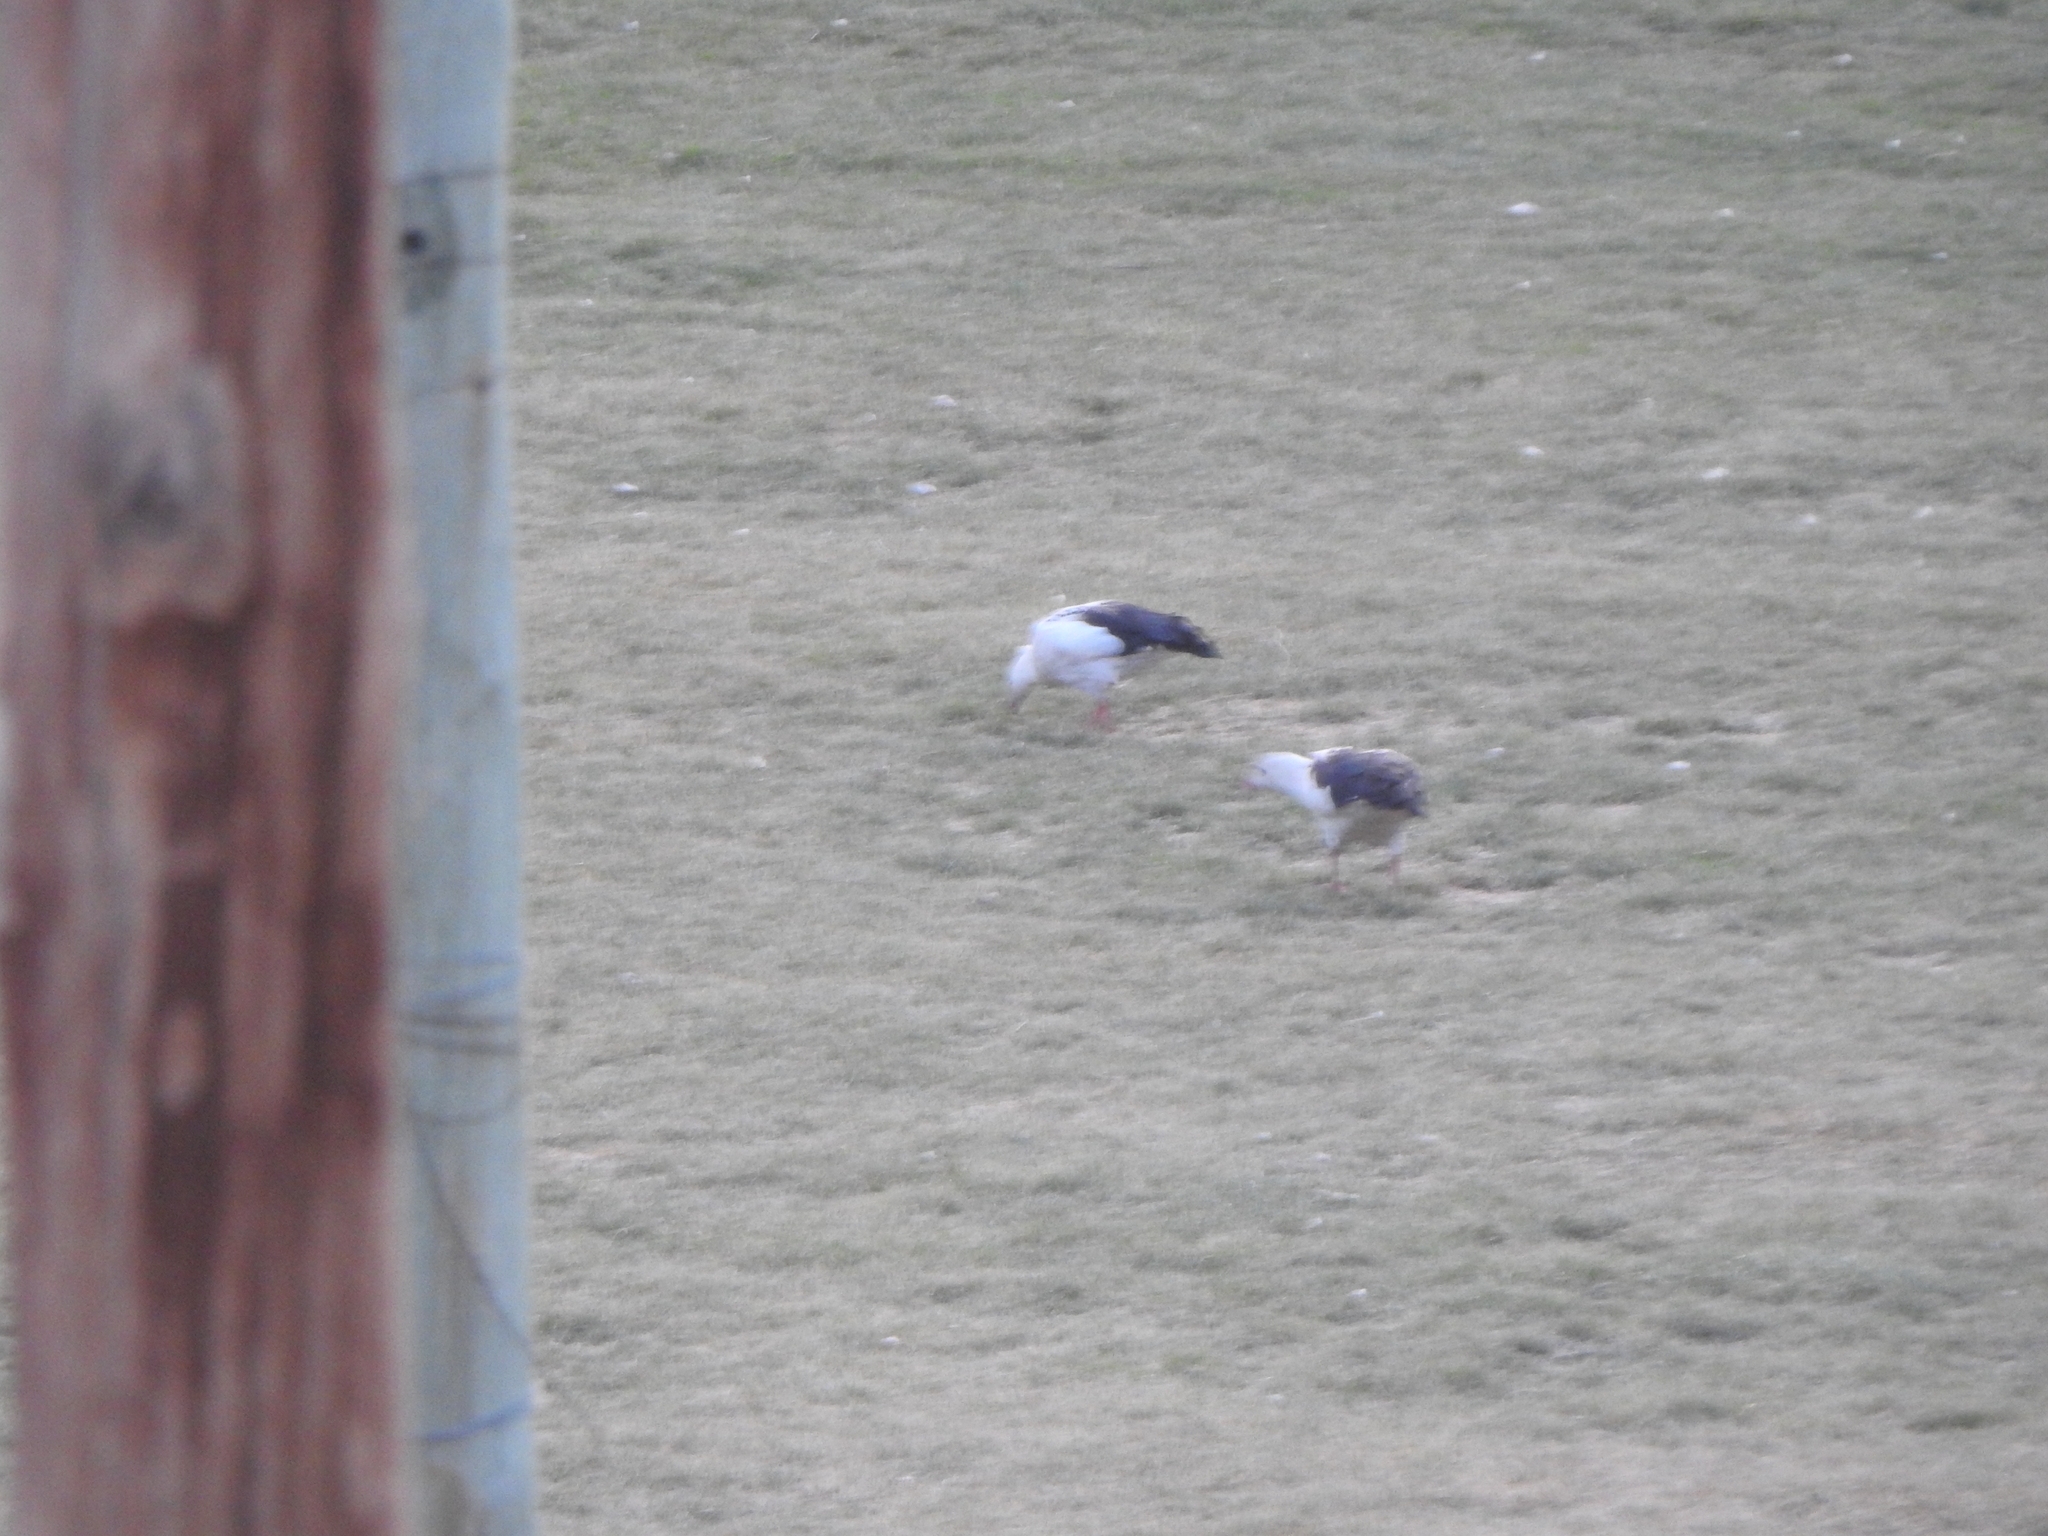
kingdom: Animalia
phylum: Chordata
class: Aves
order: Anseriformes
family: Anatidae
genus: Chloephaga
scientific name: Chloephaga melanoptera
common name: Andean goose
